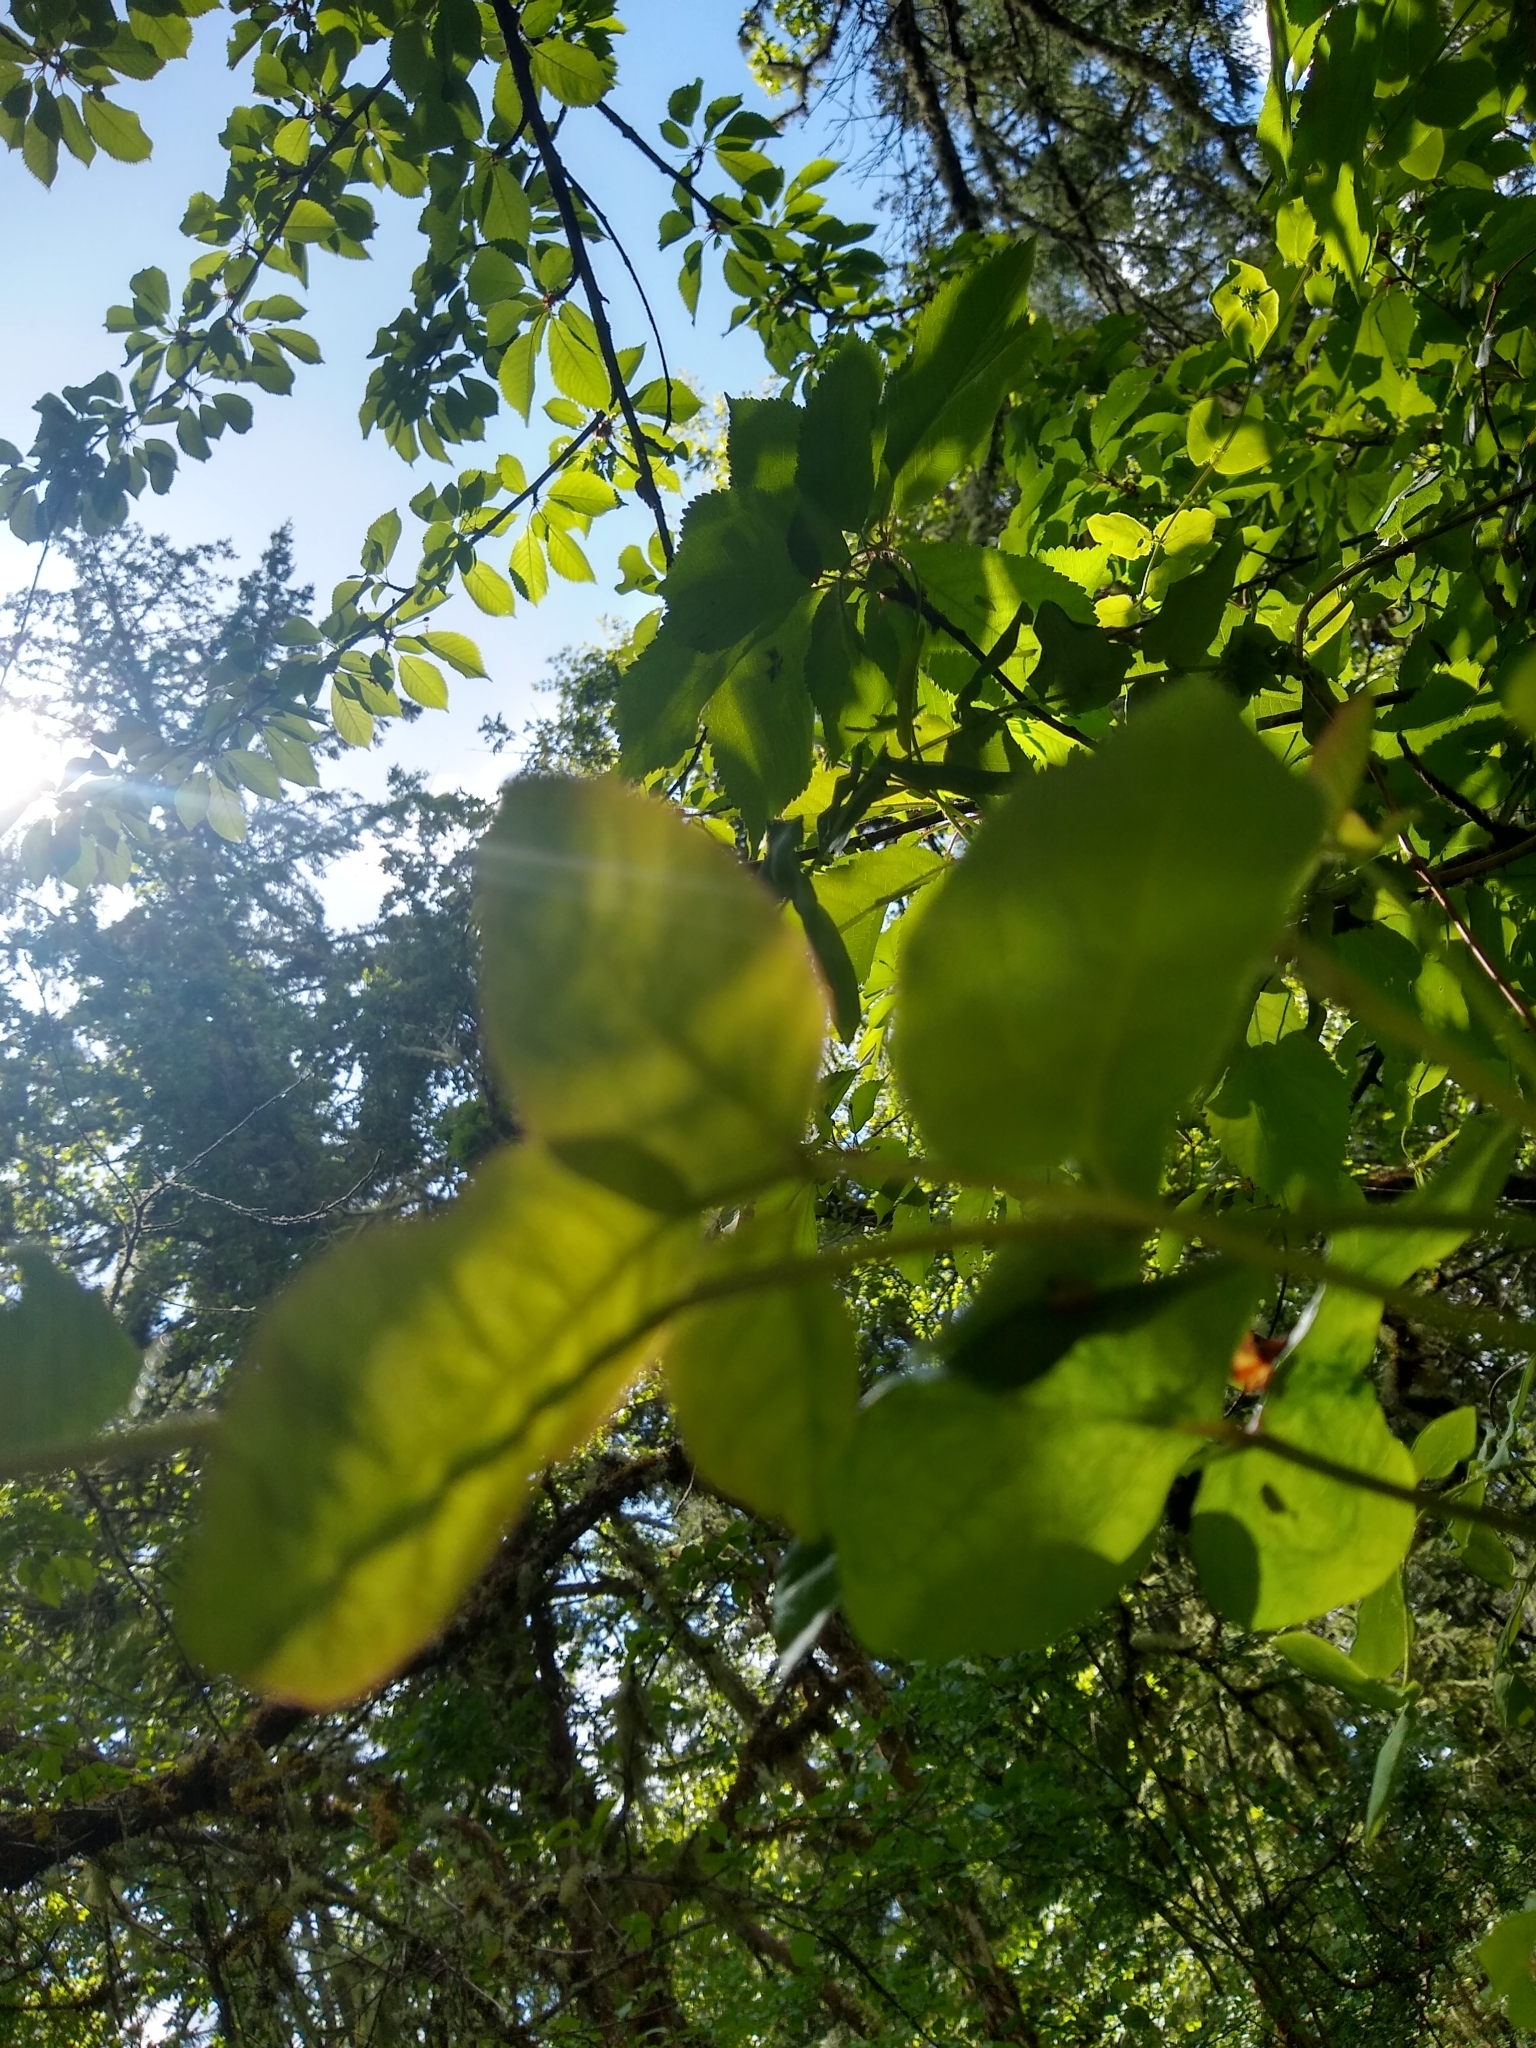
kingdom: Plantae
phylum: Tracheophyta
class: Magnoliopsida
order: Sapindales
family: Anacardiaceae
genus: Toxicodendron
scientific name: Toxicodendron diversilobum
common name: Pacific poison-oak
